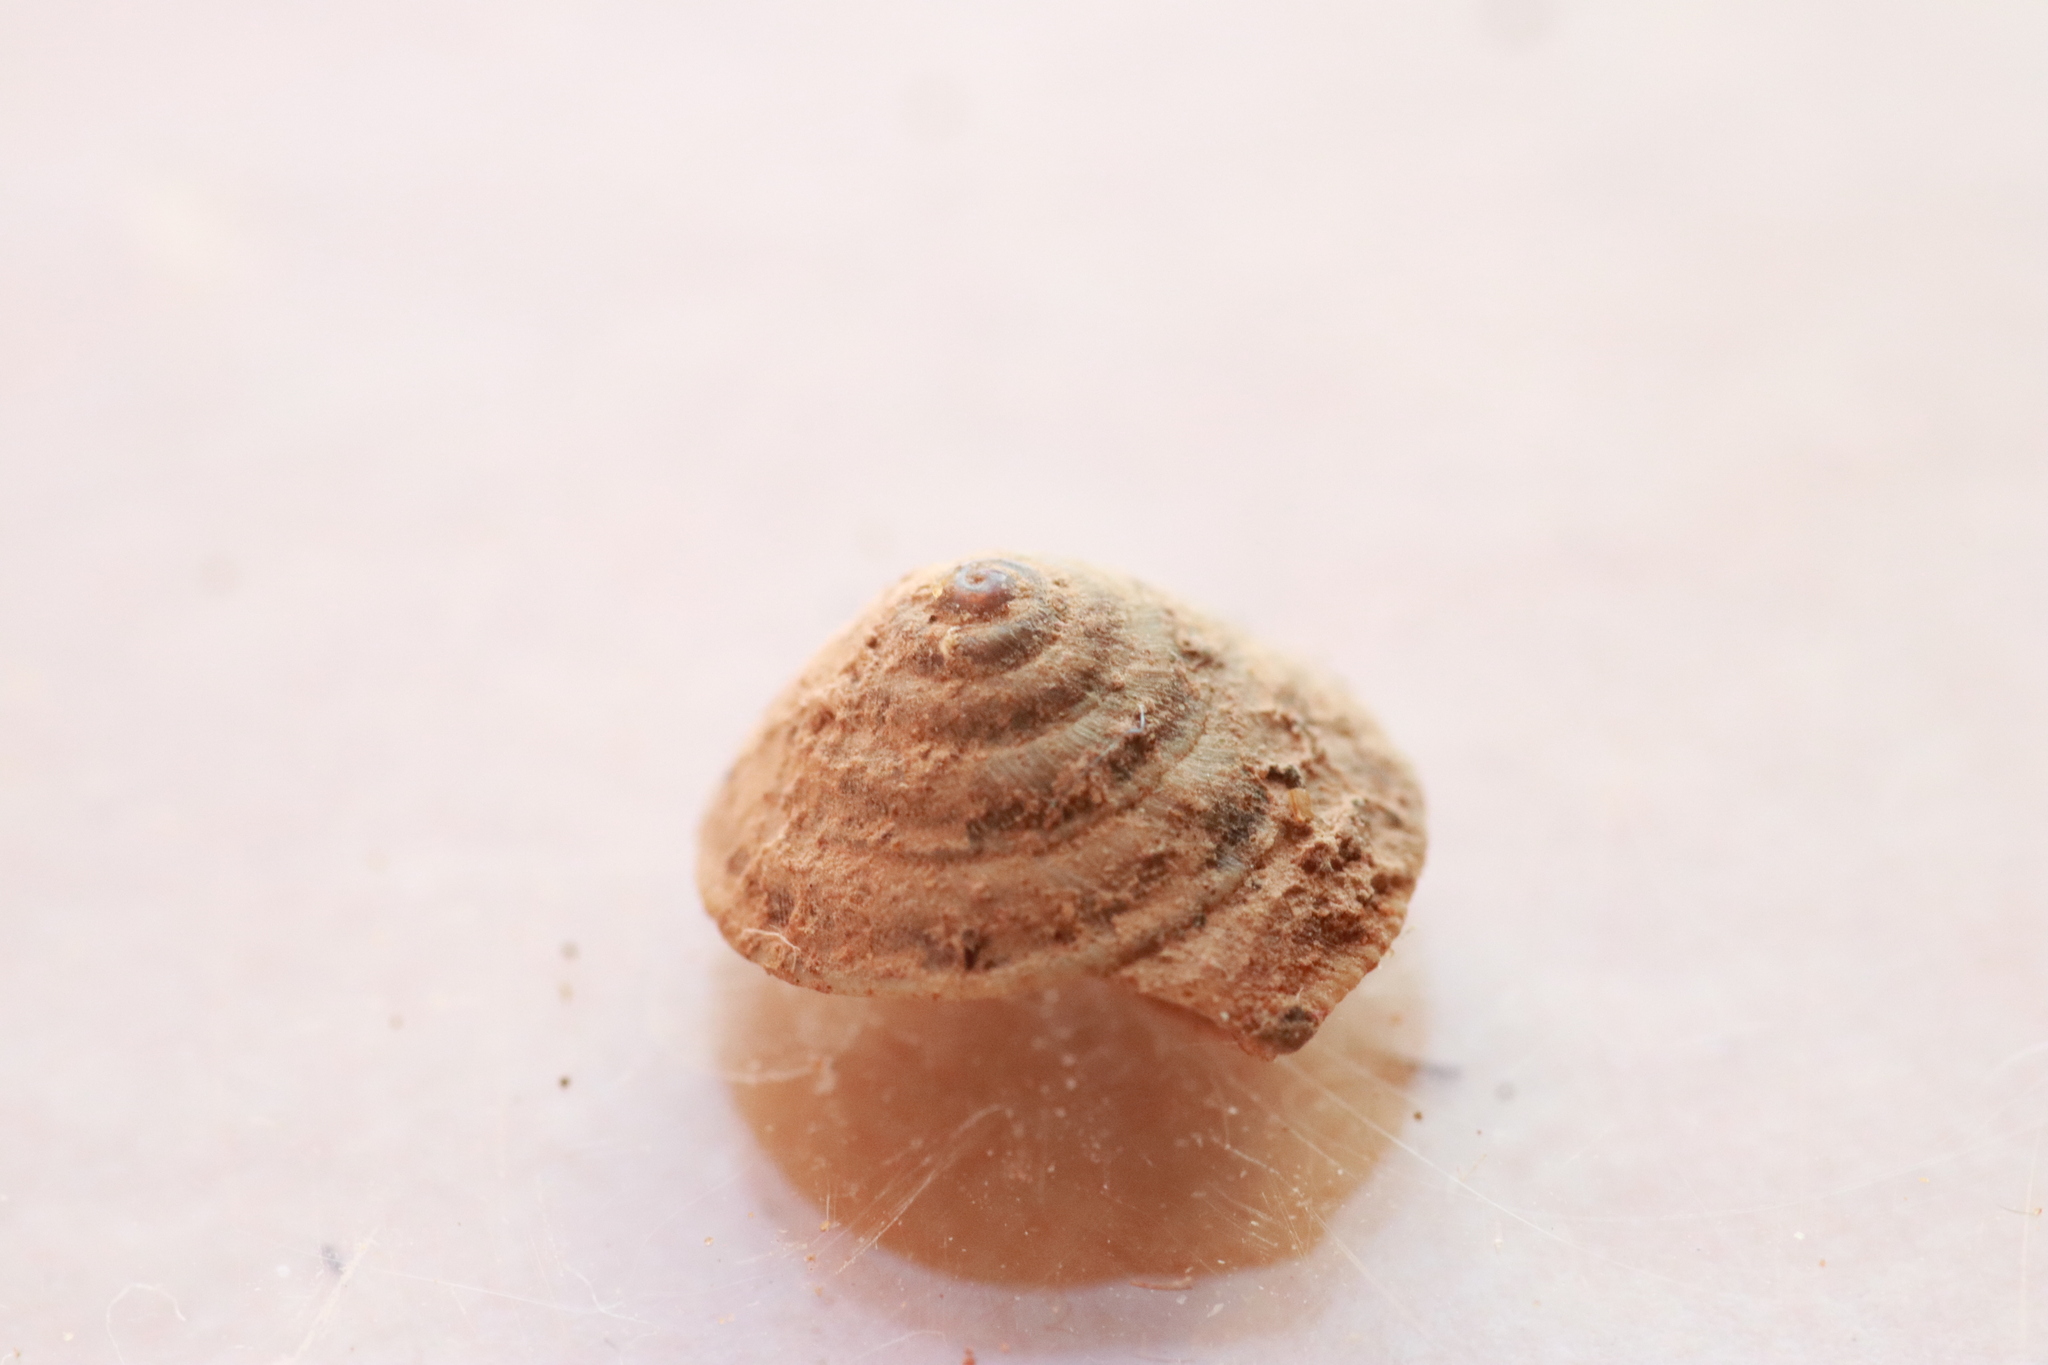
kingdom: Animalia
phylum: Mollusca
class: Gastropoda
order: Stylommatophora
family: Geomitridae
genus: Trochoidea
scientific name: Trochoidea elegans
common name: Elegant helicellid
